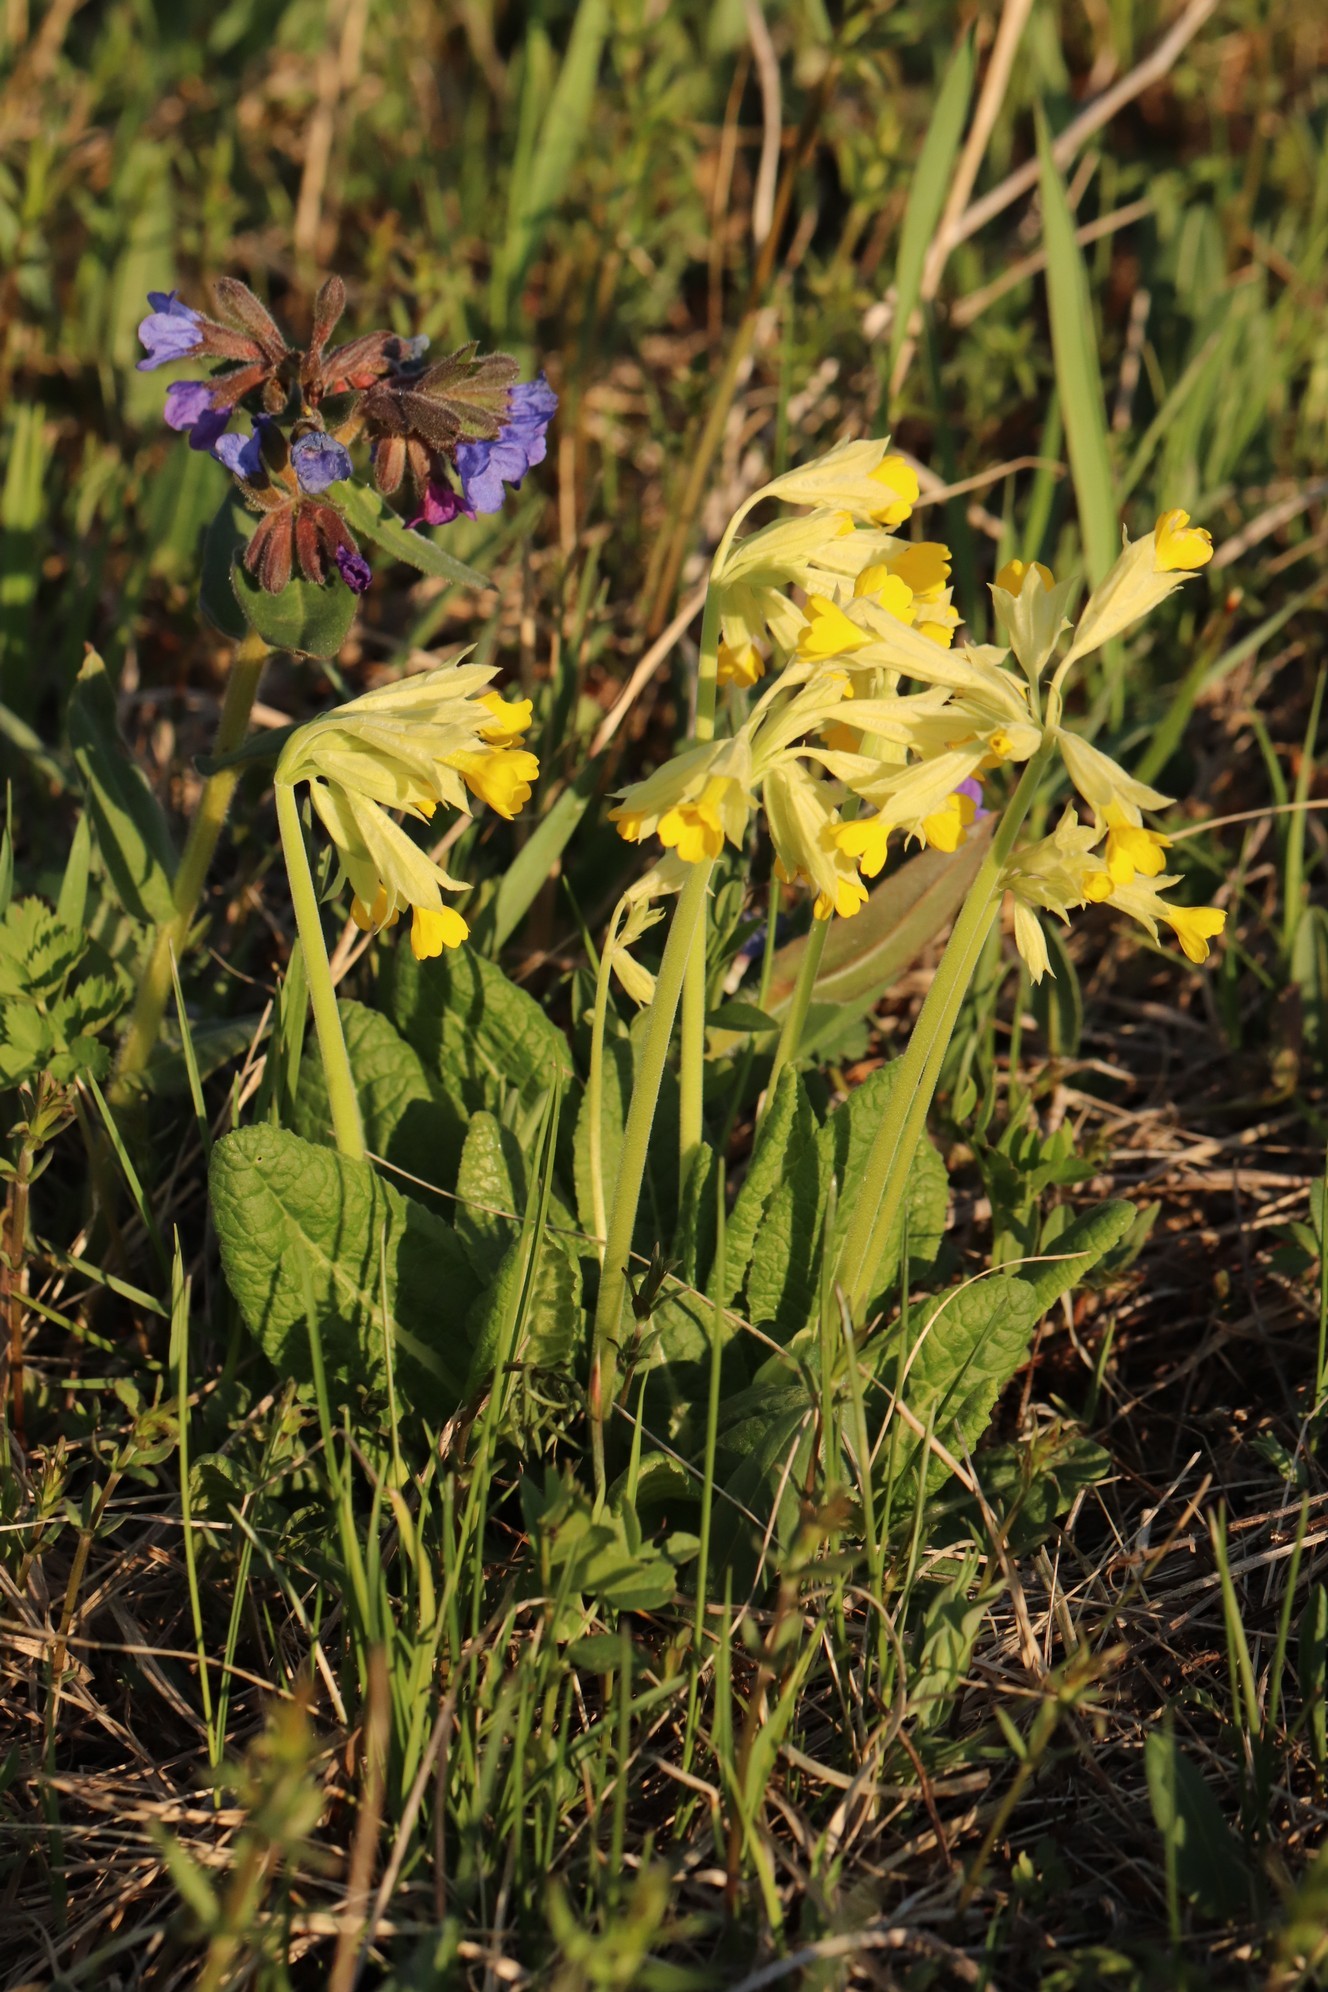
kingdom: Plantae
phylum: Tracheophyta
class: Magnoliopsida
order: Ericales
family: Primulaceae
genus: Primula
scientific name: Primula veris
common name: Cowslip
